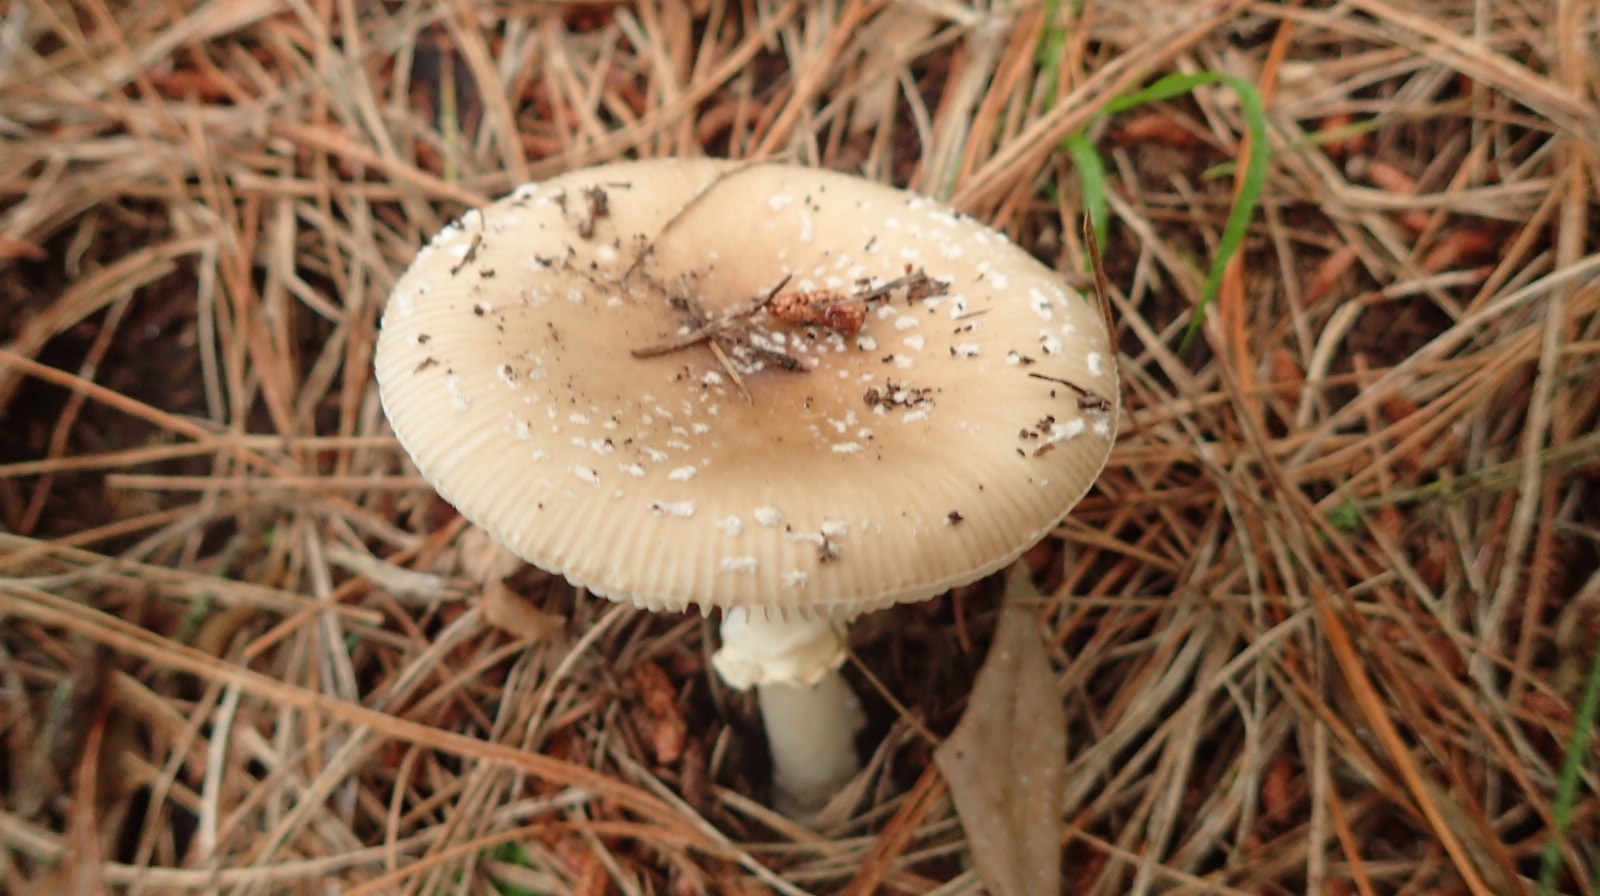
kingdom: Fungi
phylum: Basidiomycota
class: Agaricomycetes
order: Agaricales
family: Amanitaceae
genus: Amanita
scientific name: Amanita pantherina
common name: Panthercap
